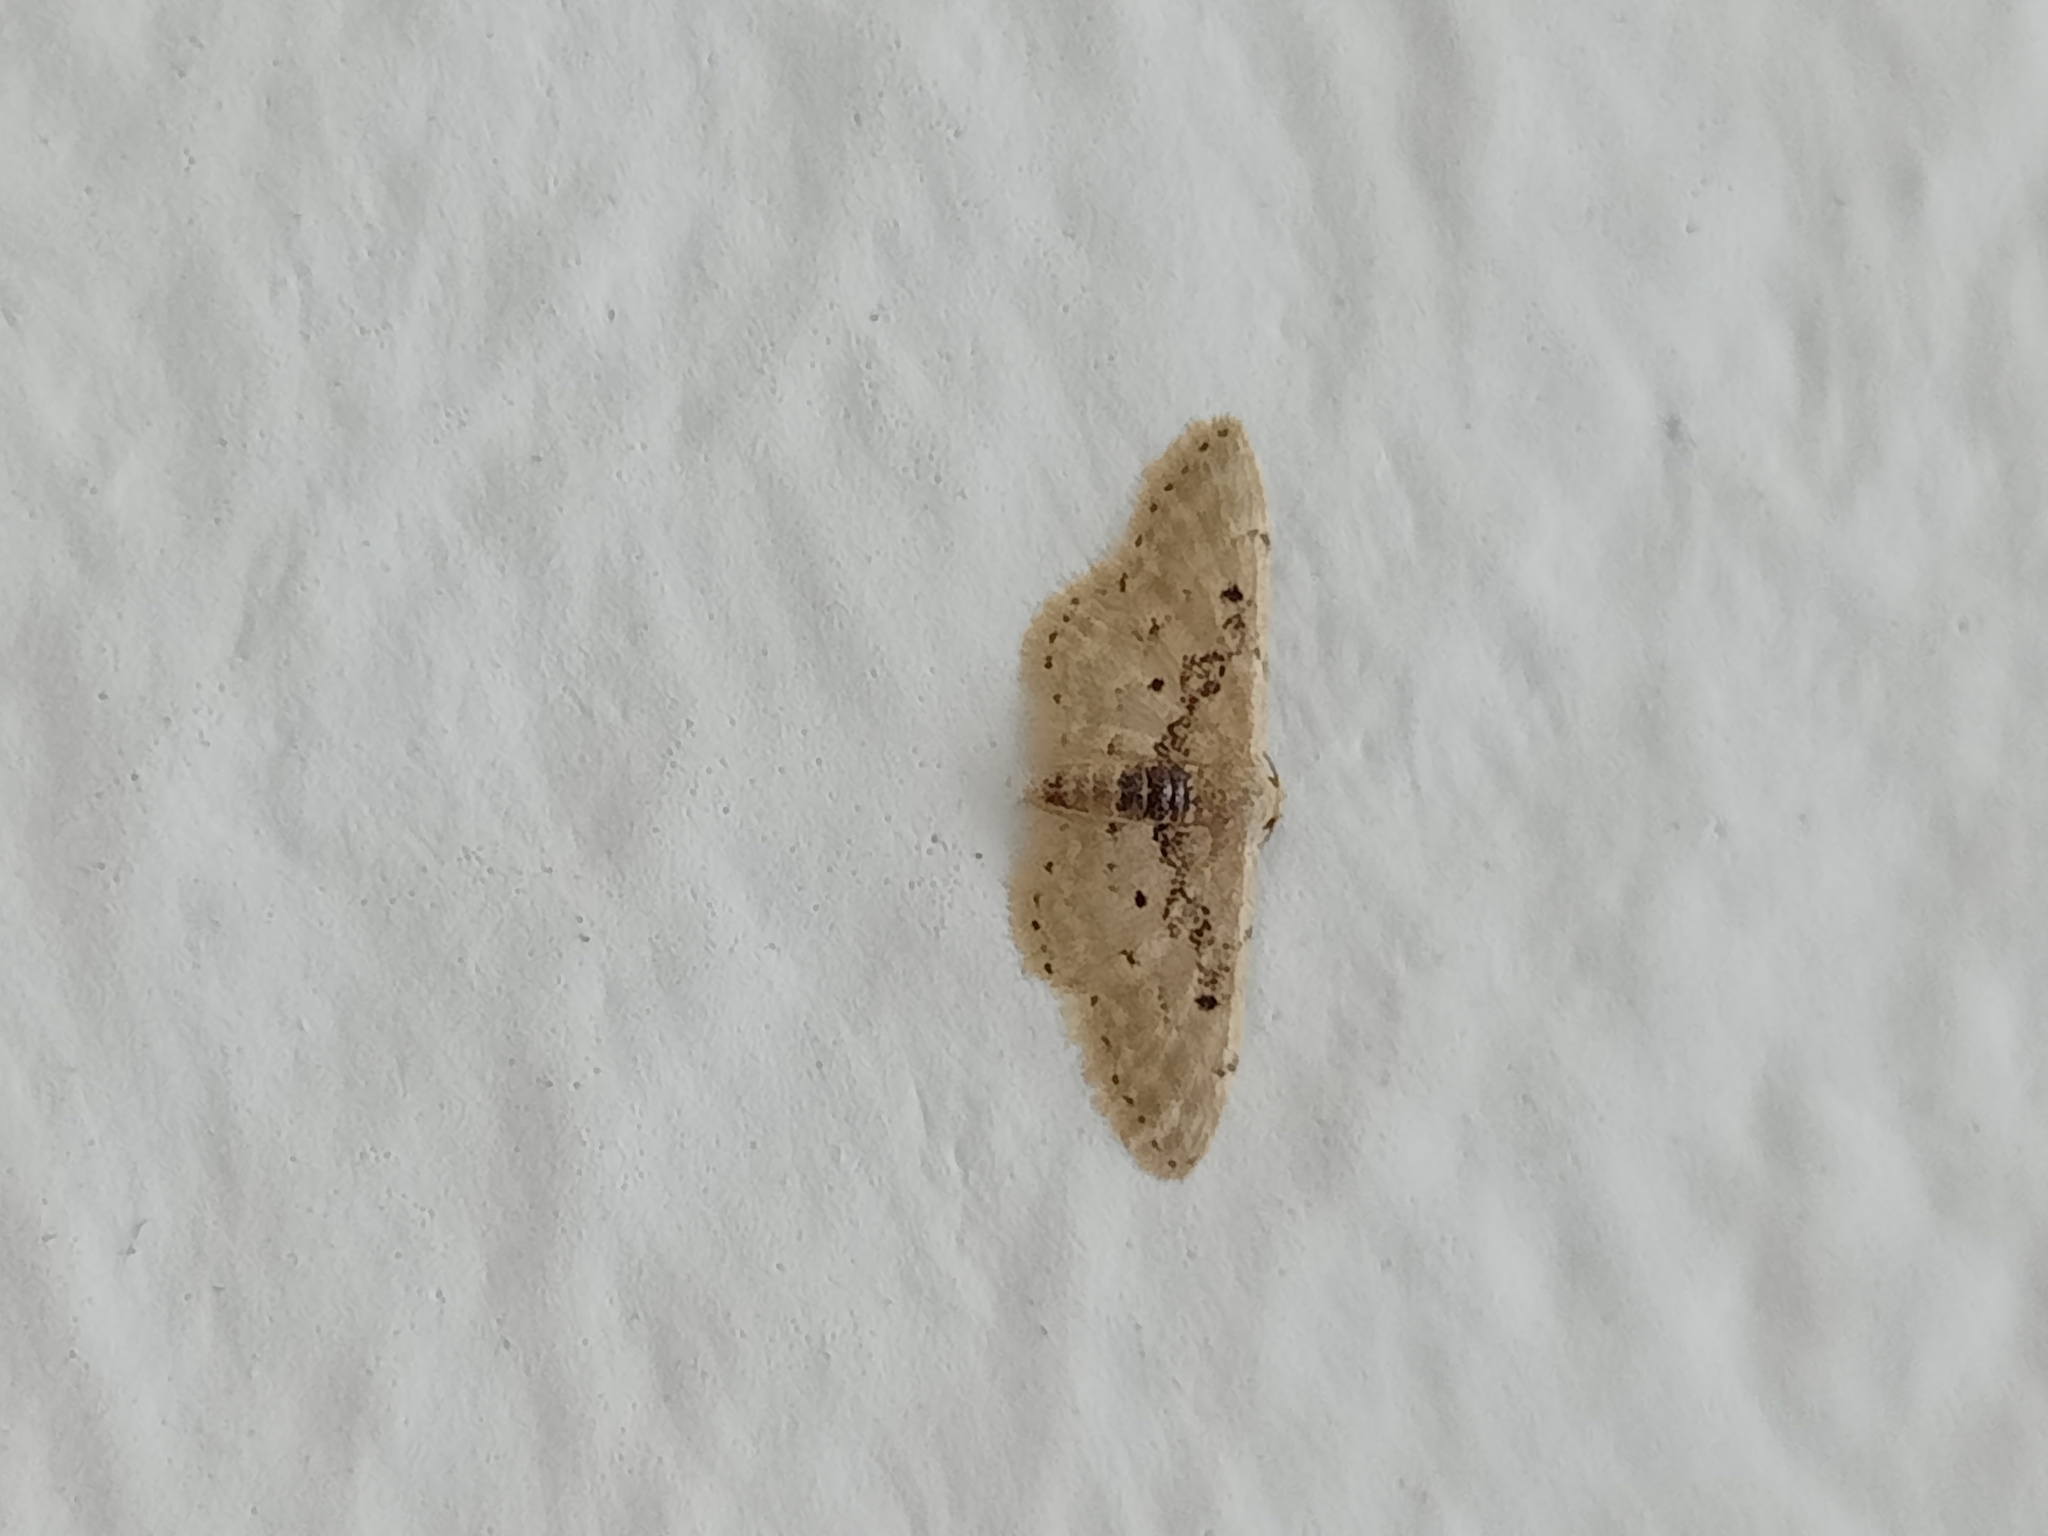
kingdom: Animalia
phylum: Arthropoda
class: Insecta
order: Lepidoptera
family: Geometridae
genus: Idaea
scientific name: Idaea intermedia
